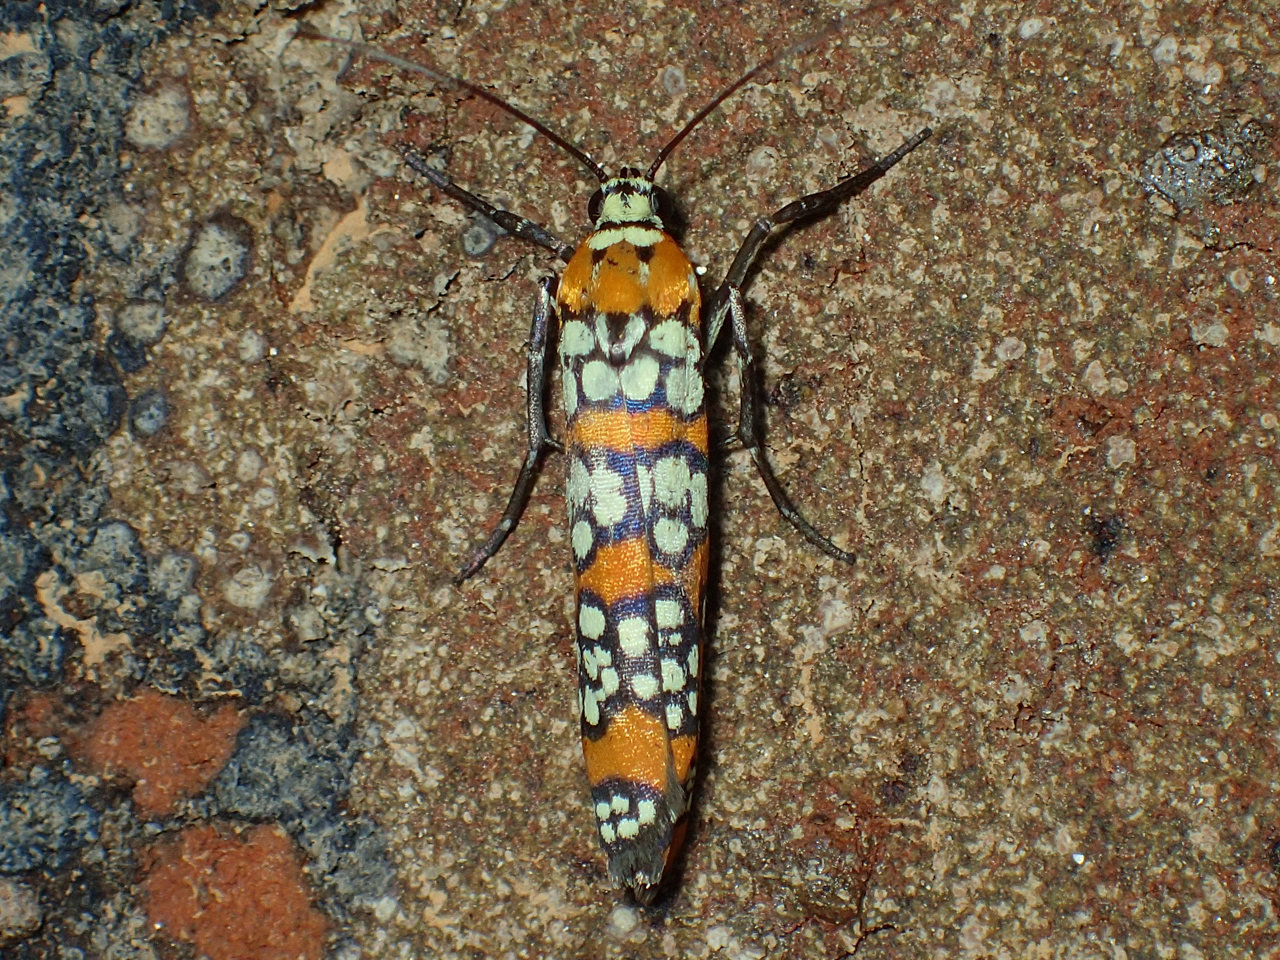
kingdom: Animalia
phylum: Arthropoda
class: Insecta
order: Lepidoptera
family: Attevidae
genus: Atteva
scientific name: Atteva punctella
